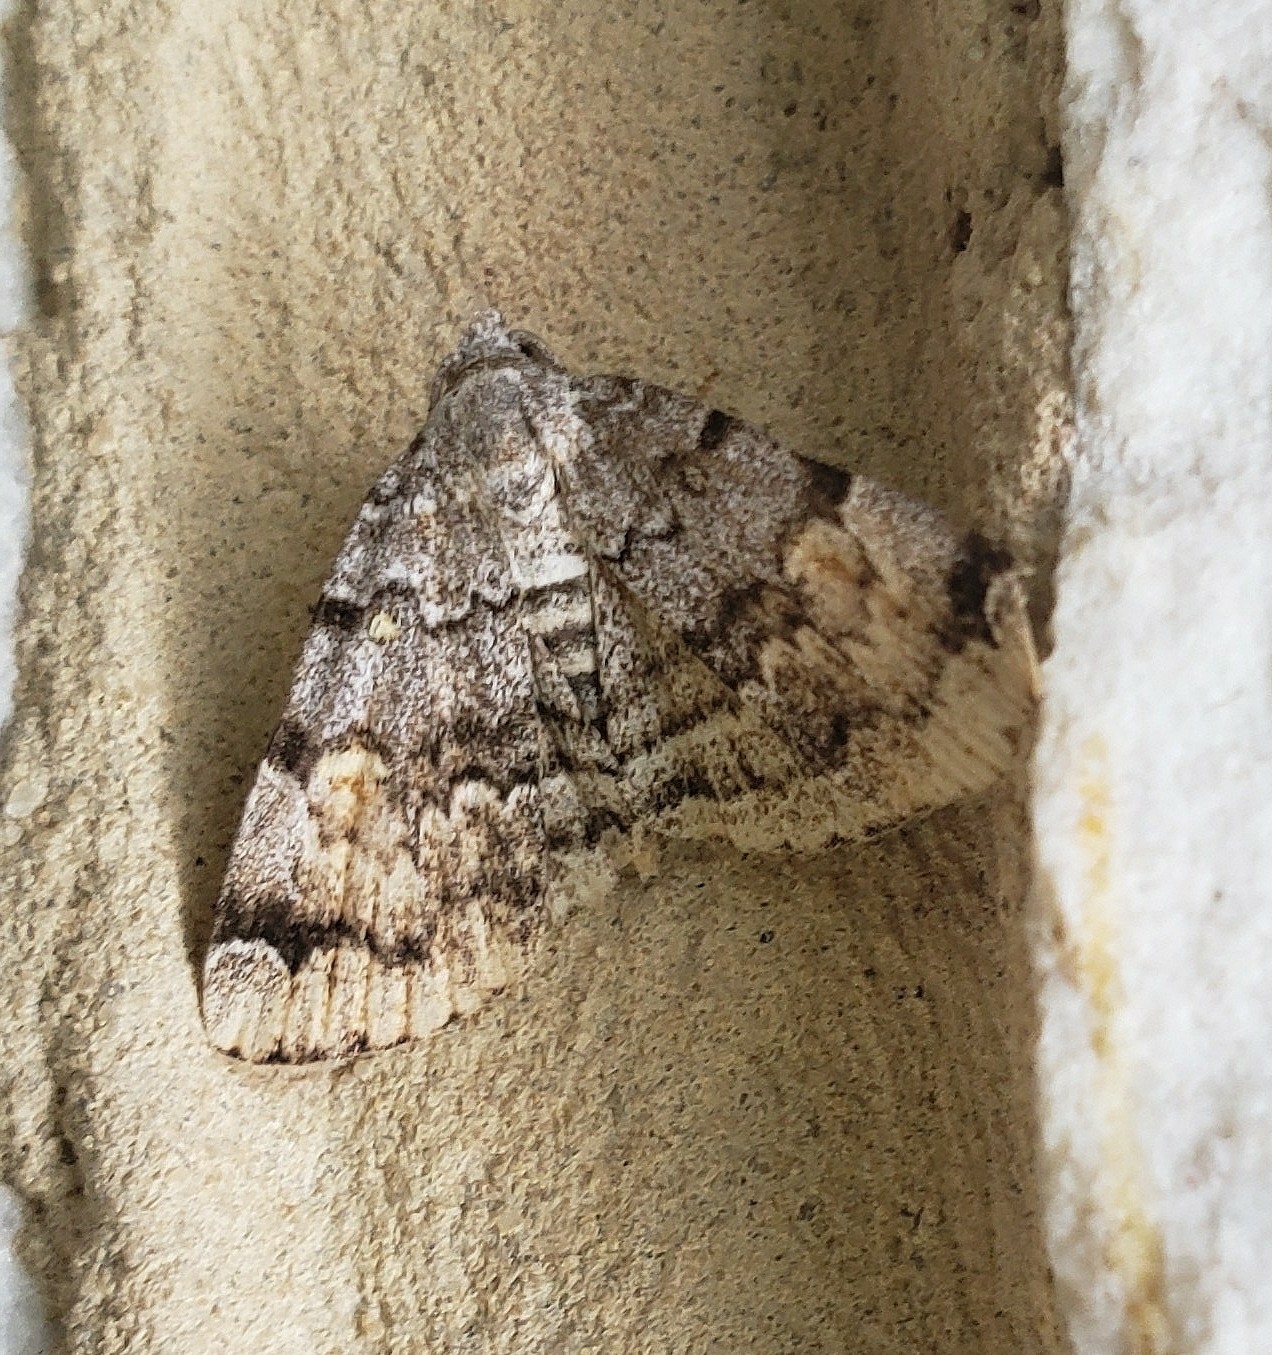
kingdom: Animalia
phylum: Arthropoda
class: Insecta
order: Lepidoptera
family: Erebidae
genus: Idia
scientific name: Idia americalis
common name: American idia moth
